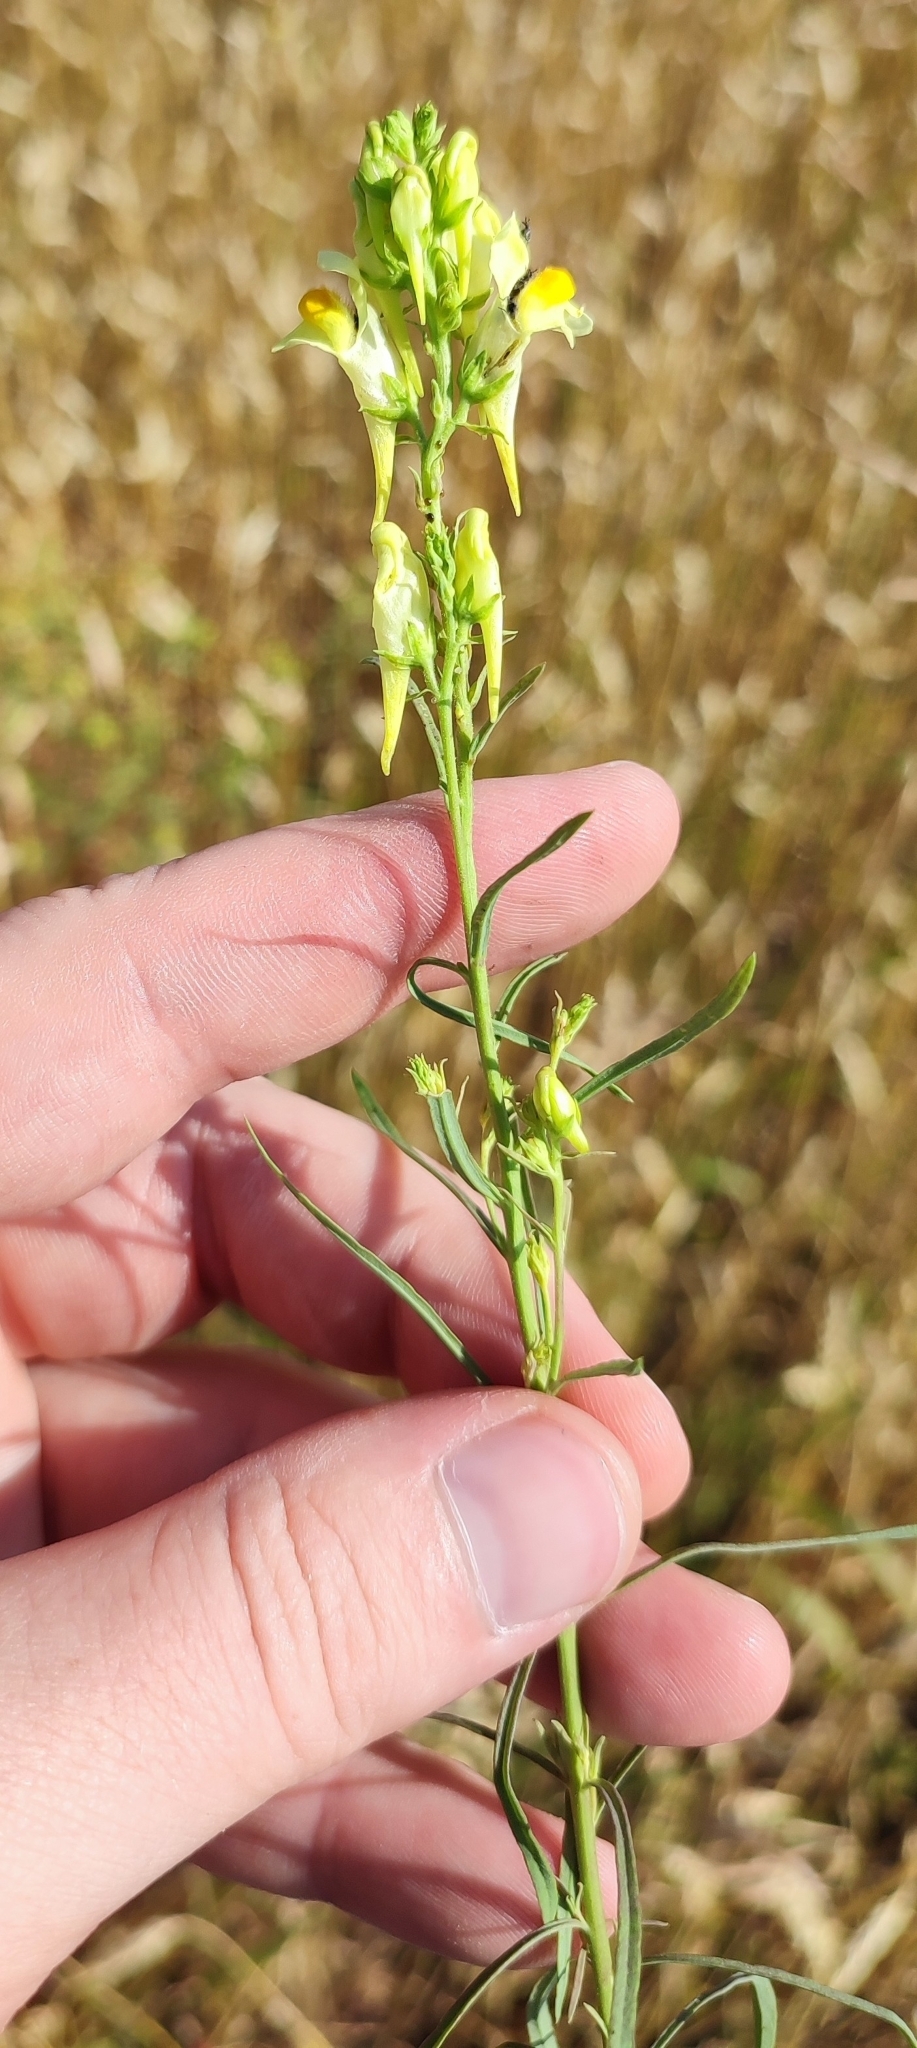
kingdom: Plantae
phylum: Tracheophyta
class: Magnoliopsida
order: Lamiales
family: Plantaginaceae
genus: Linaria
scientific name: Linaria vulgaris
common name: Butter and eggs
